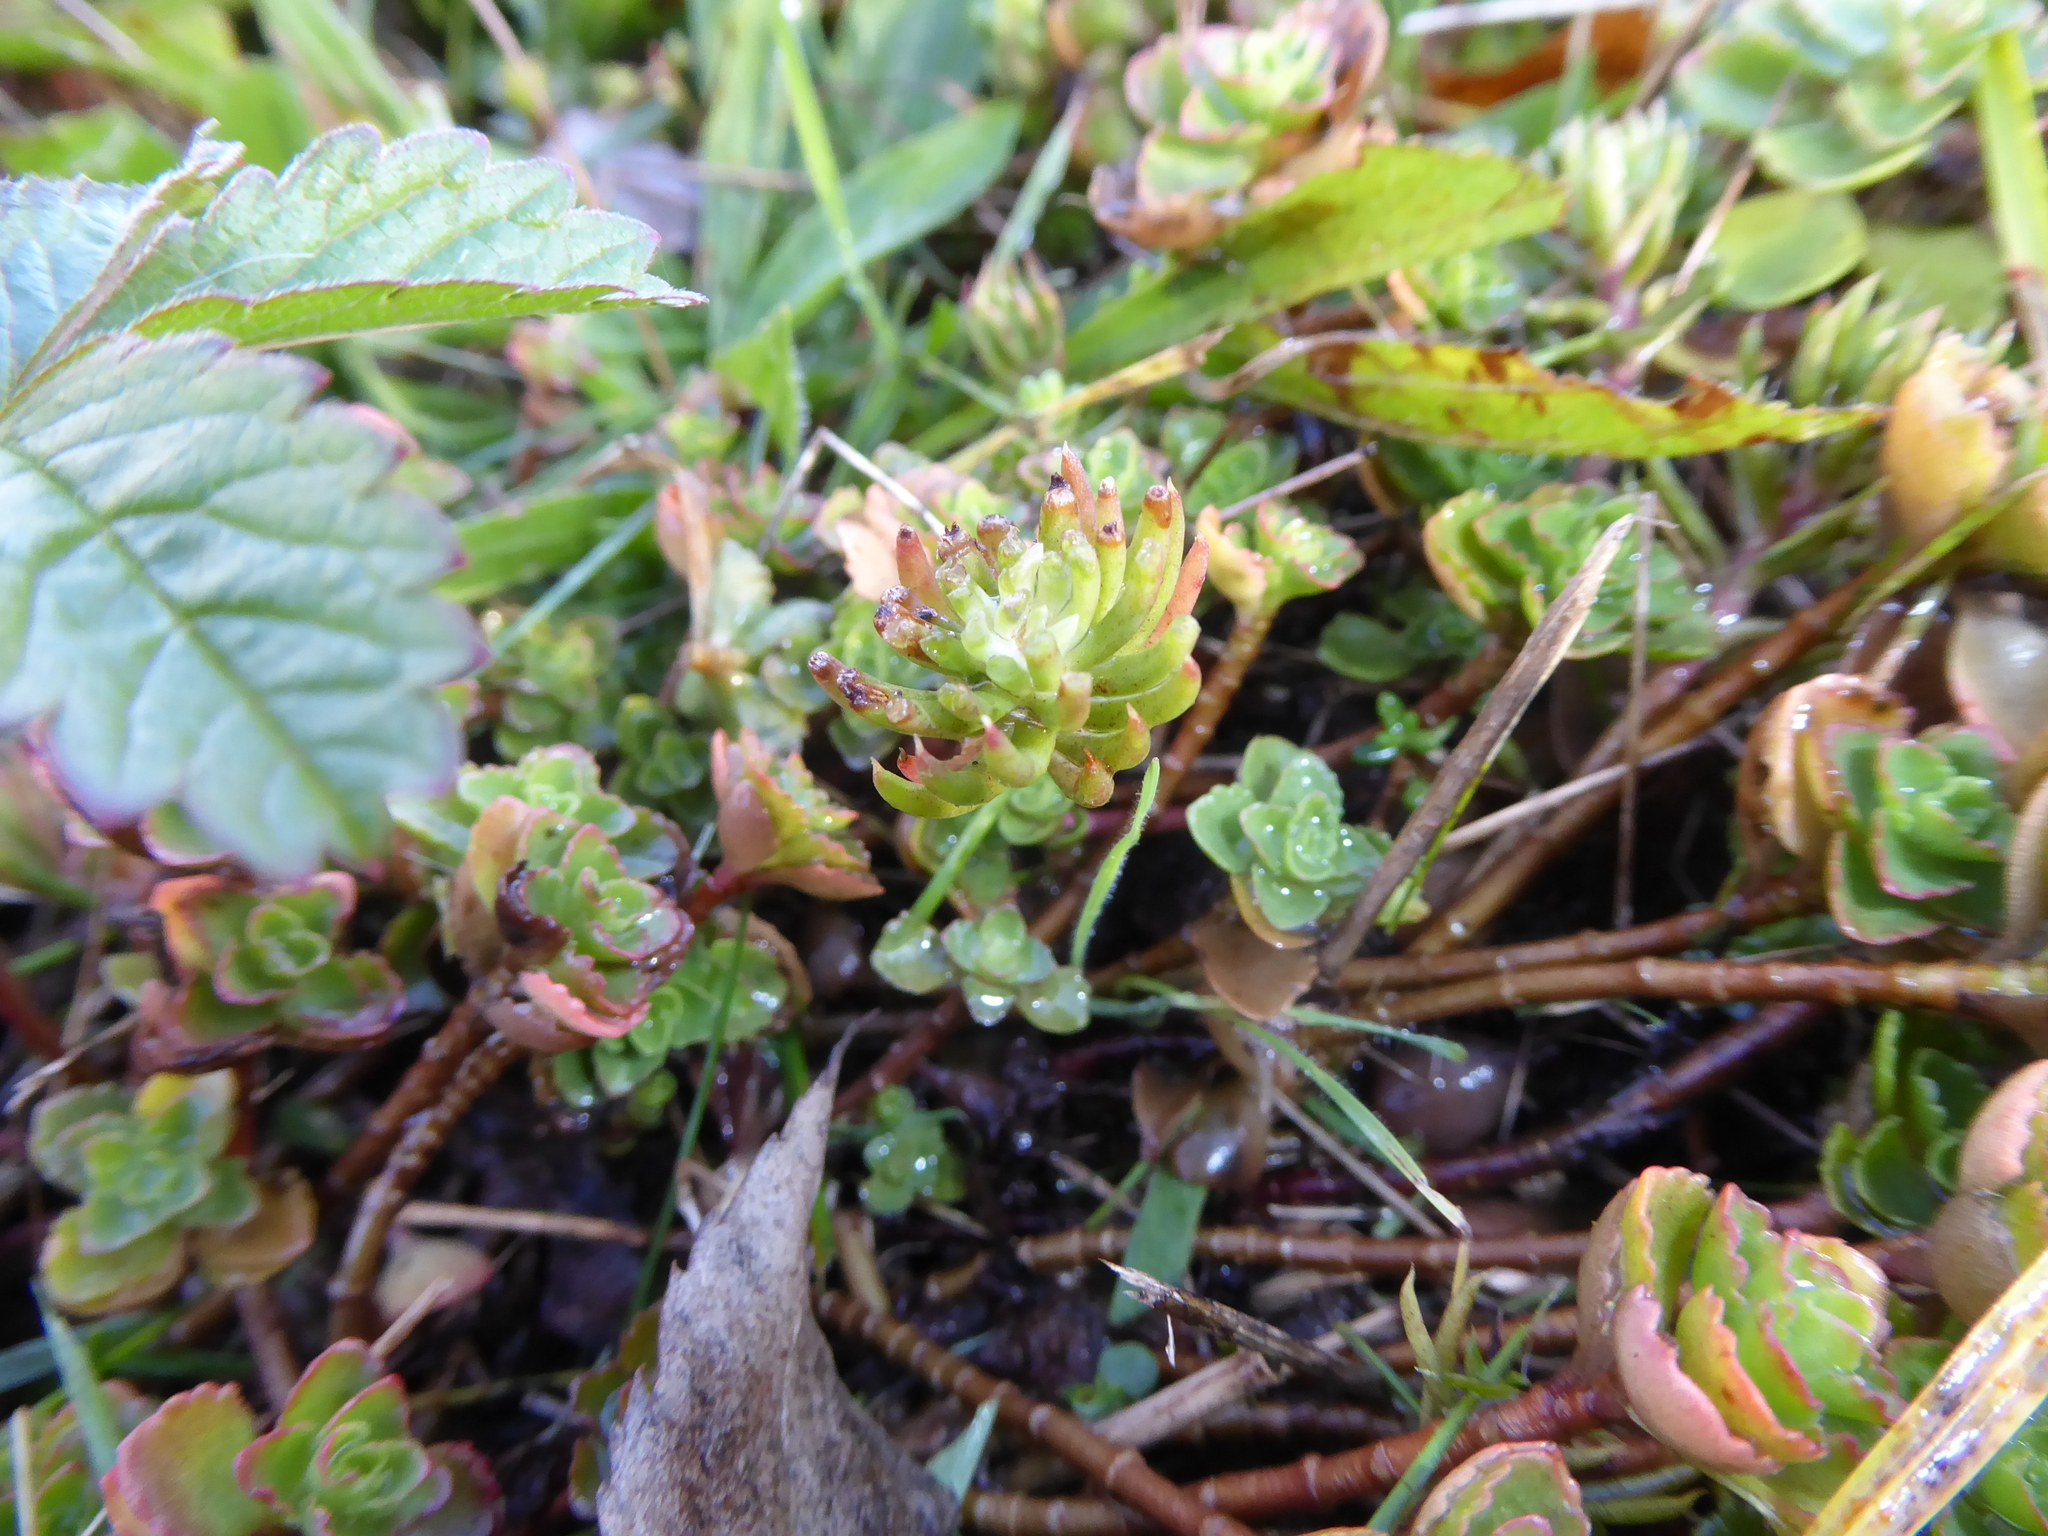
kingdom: Plantae
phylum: Tracheophyta
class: Magnoliopsida
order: Saxifragales
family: Crassulaceae
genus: Phedimus
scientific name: Phedimus spurius
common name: Caucasian stonecrop
